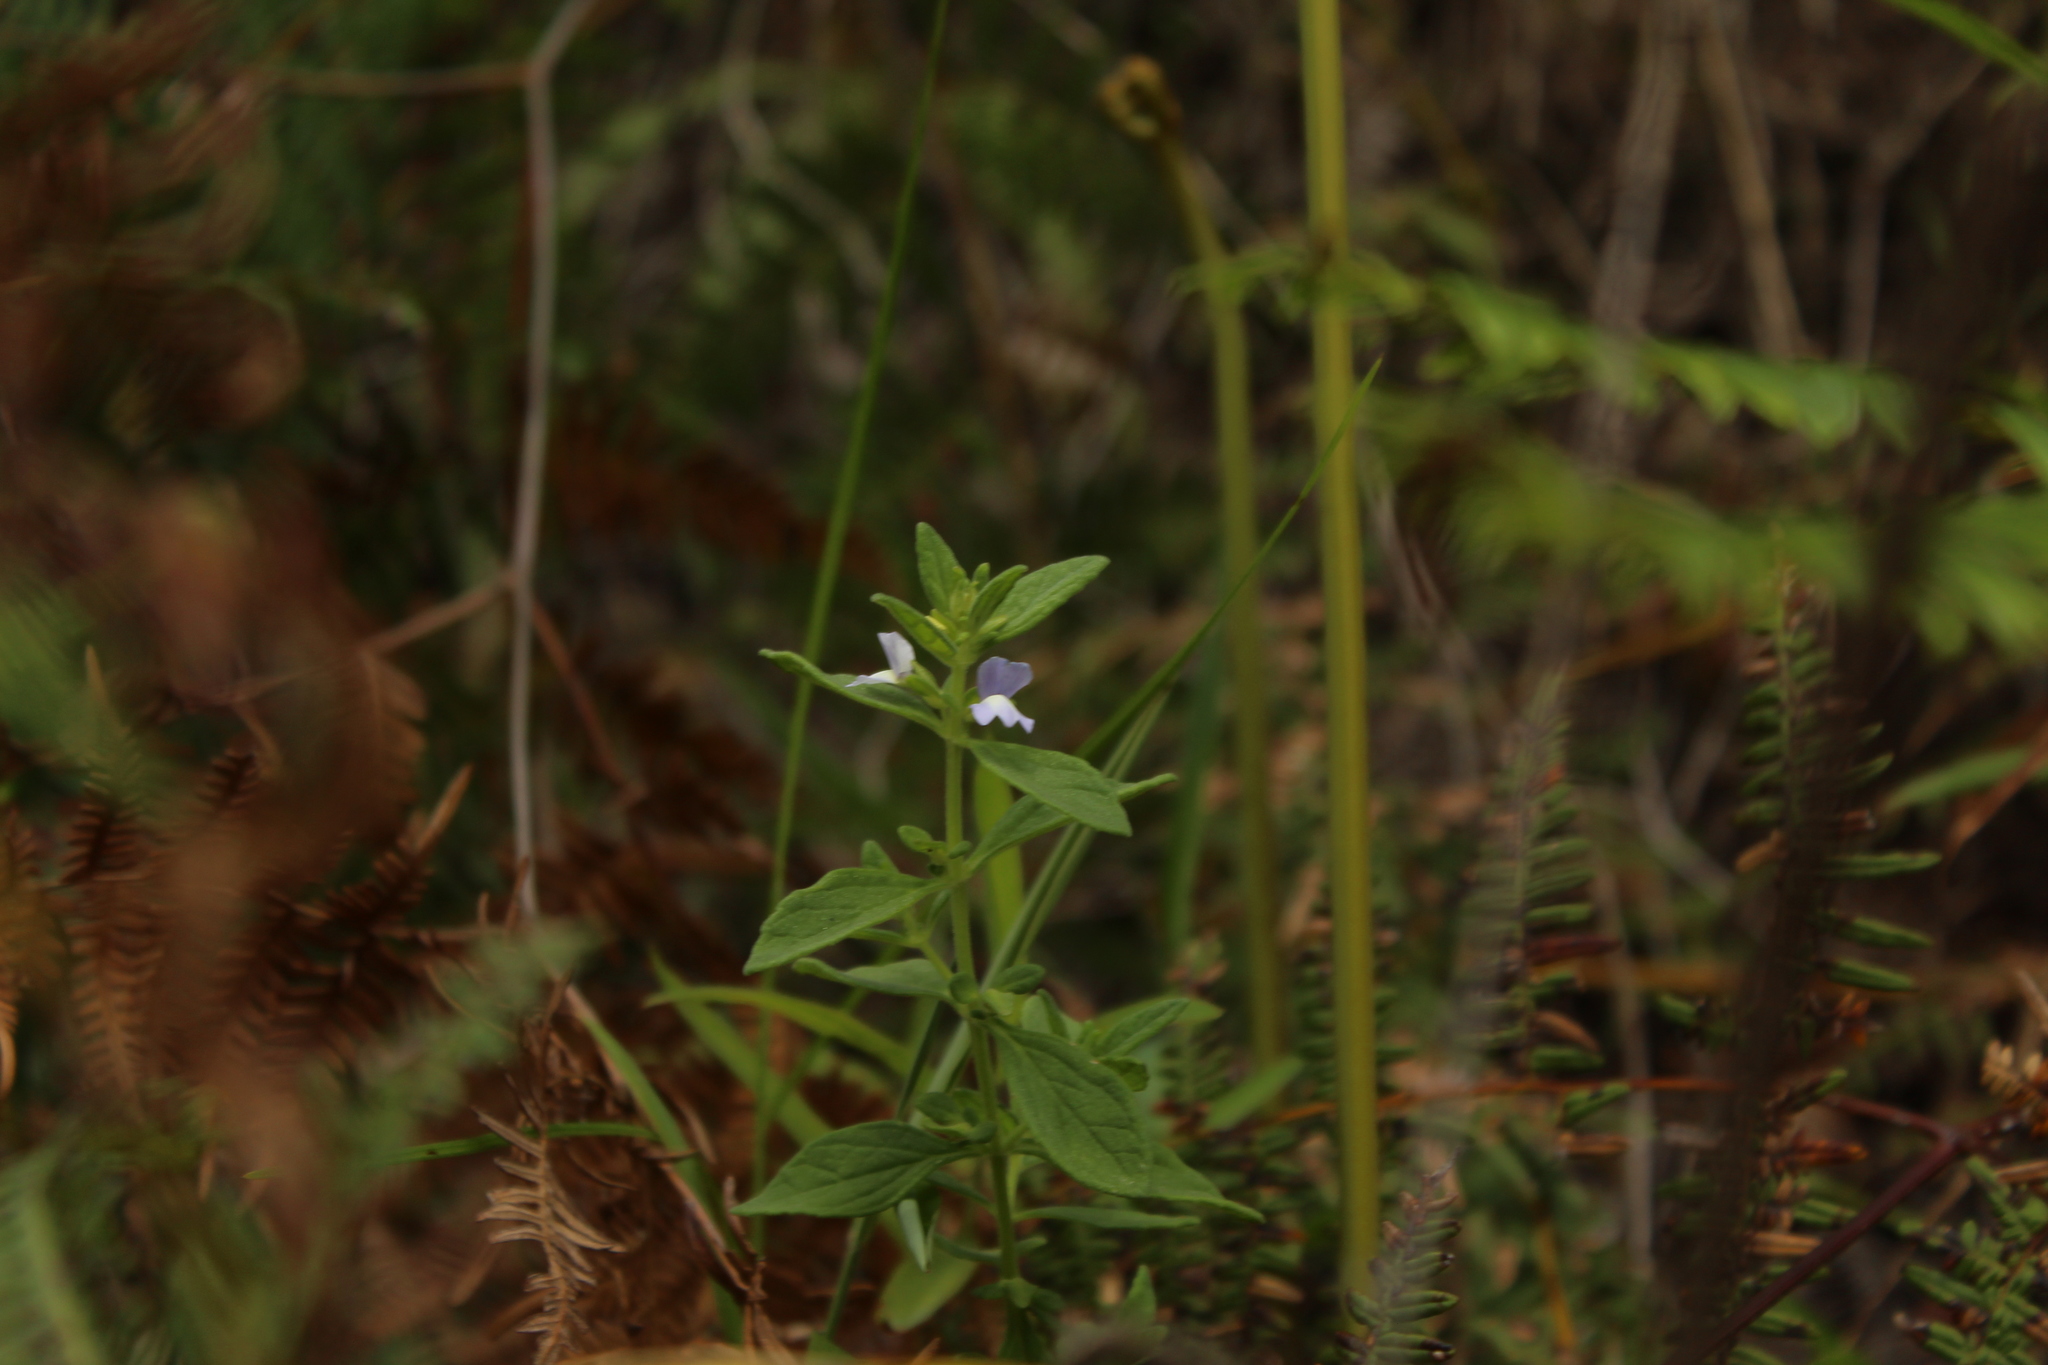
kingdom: Plantae
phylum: Tracheophyta
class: Magnoliopsida
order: Lamiales
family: Plantaginaceae
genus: Matourea
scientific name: Matourea erecta
